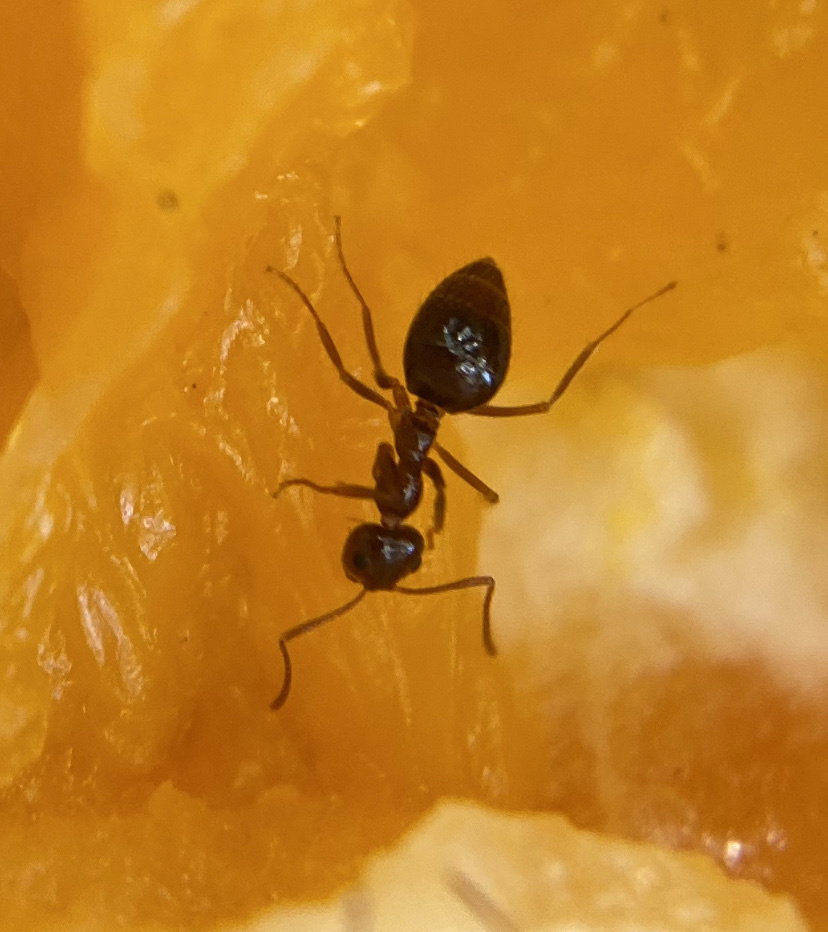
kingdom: Animalia
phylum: Arthropoda
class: Insecta
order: Hymenoptera
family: Formicidae
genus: Prenolepis
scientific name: Prenolepis imparis
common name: Small honey ant
